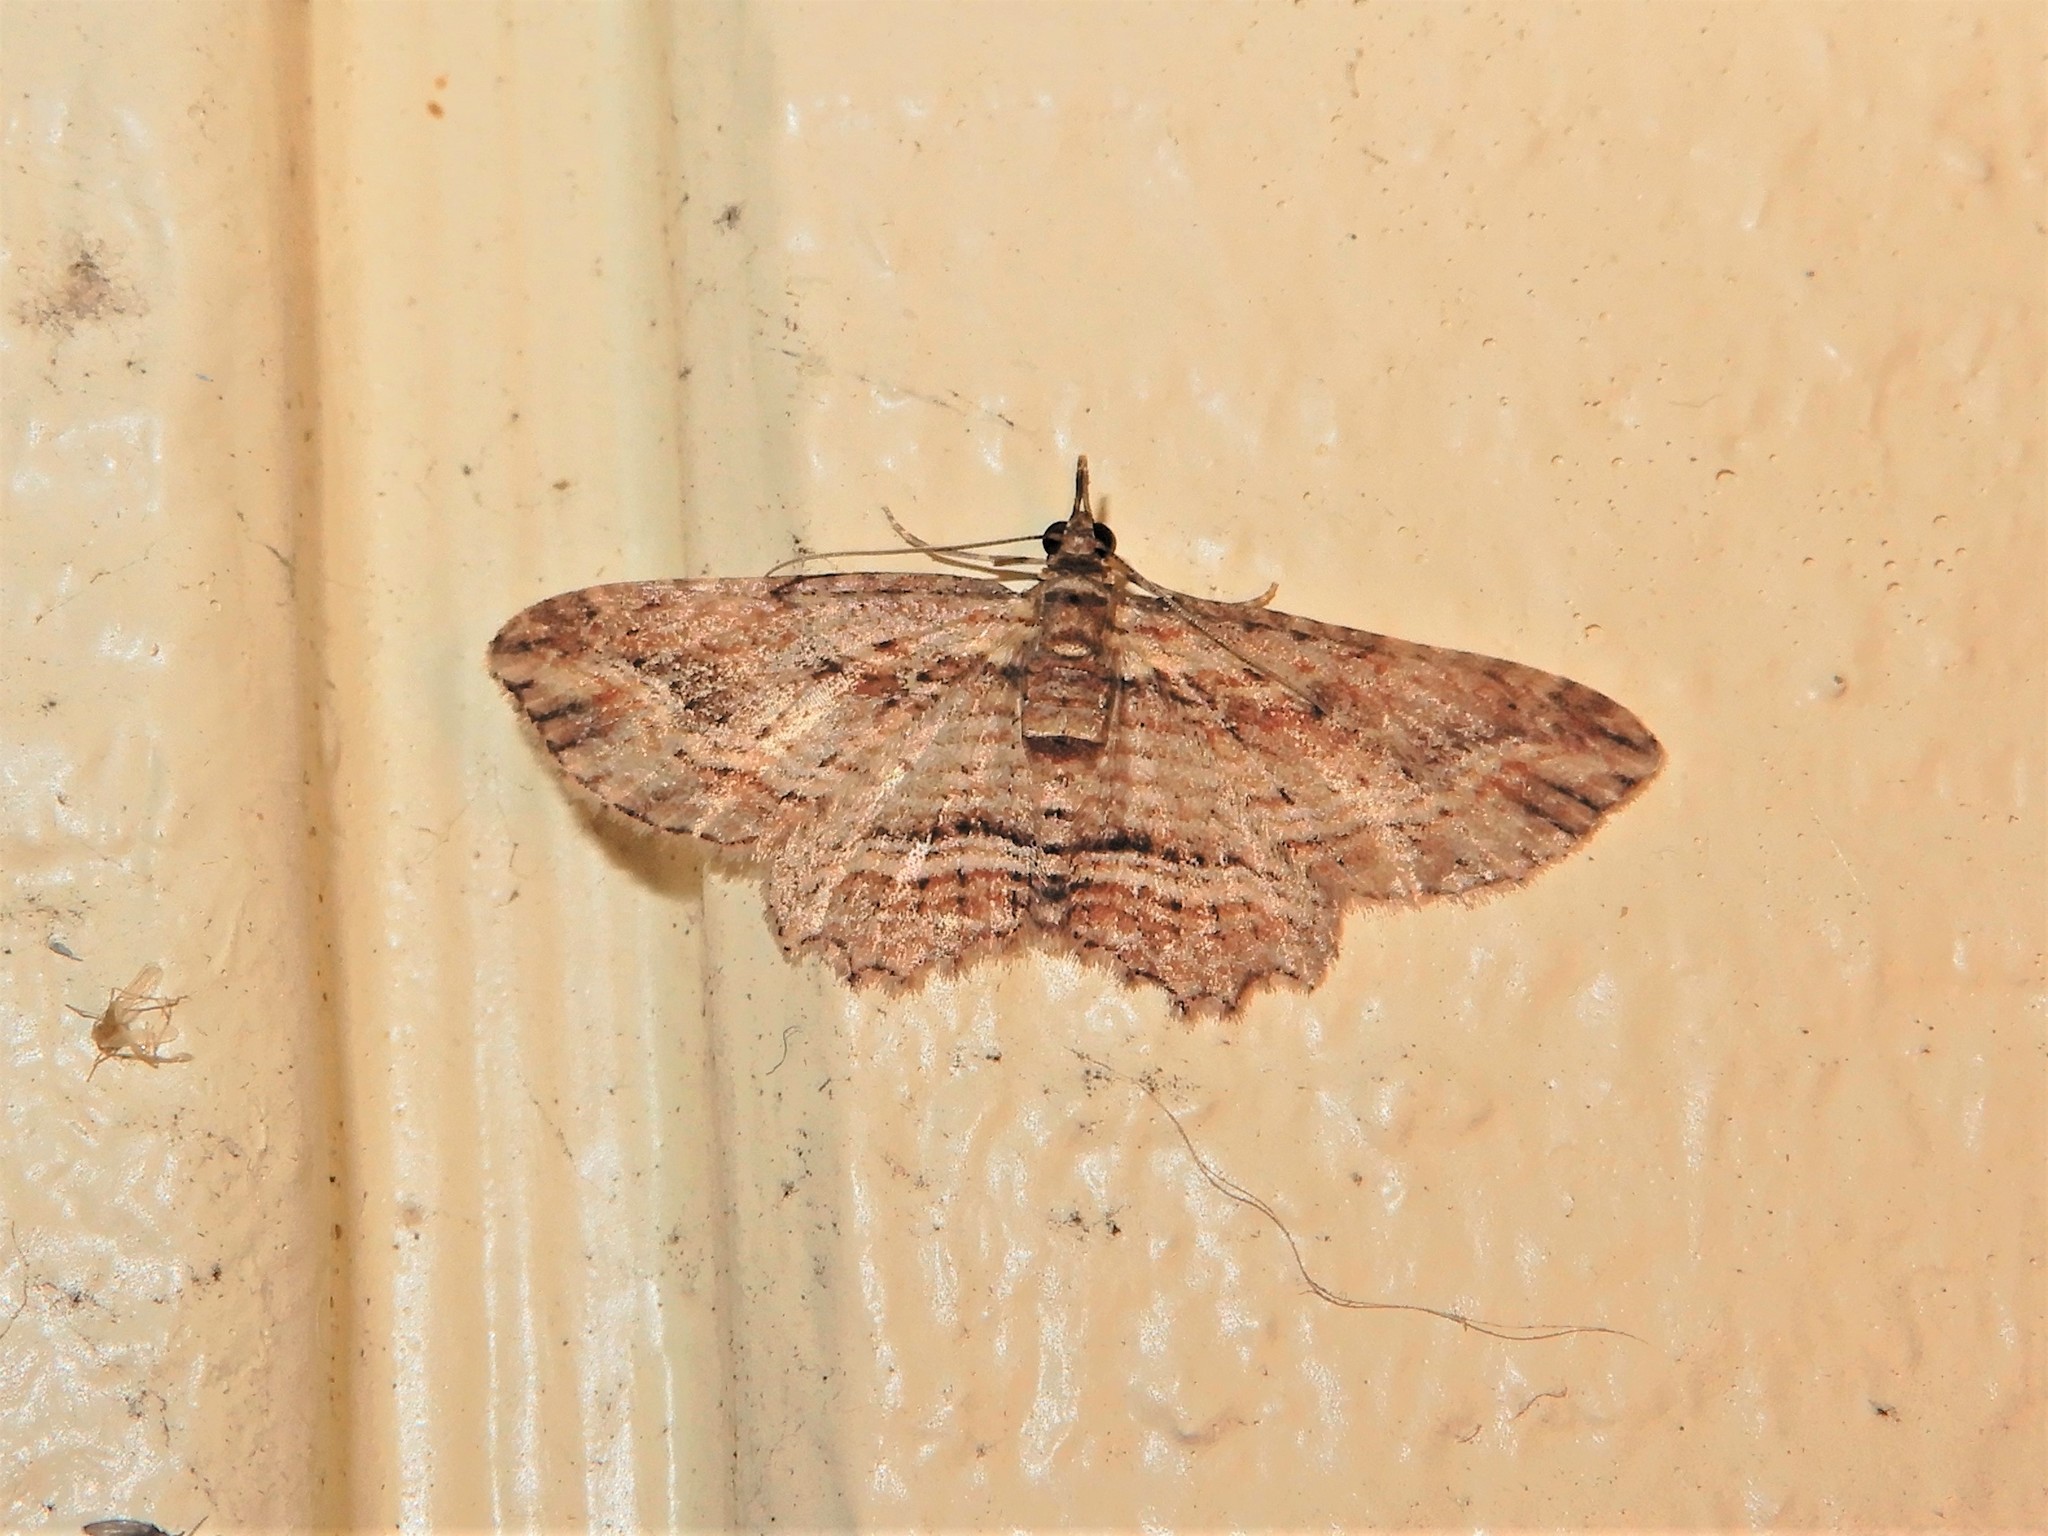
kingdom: Animalia
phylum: Arthropoda
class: Insecta
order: Lepidoptera
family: Geometridae
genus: Chloroclystis
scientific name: Chloroclystis filata
